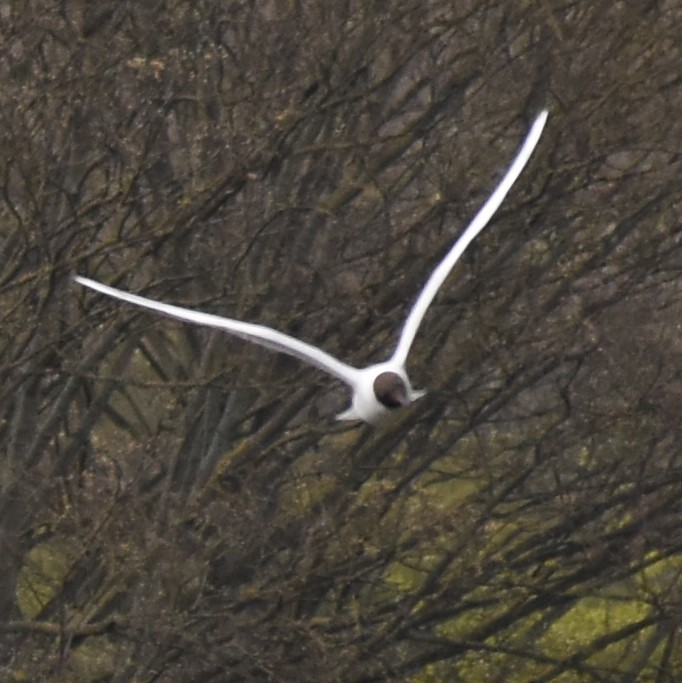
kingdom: Animalia
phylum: Chordata
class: Aves
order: Charadriiformes
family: Laridae
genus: Chroicocephalus
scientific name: Chroicocephalus ridibundus
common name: Black-headed gull
